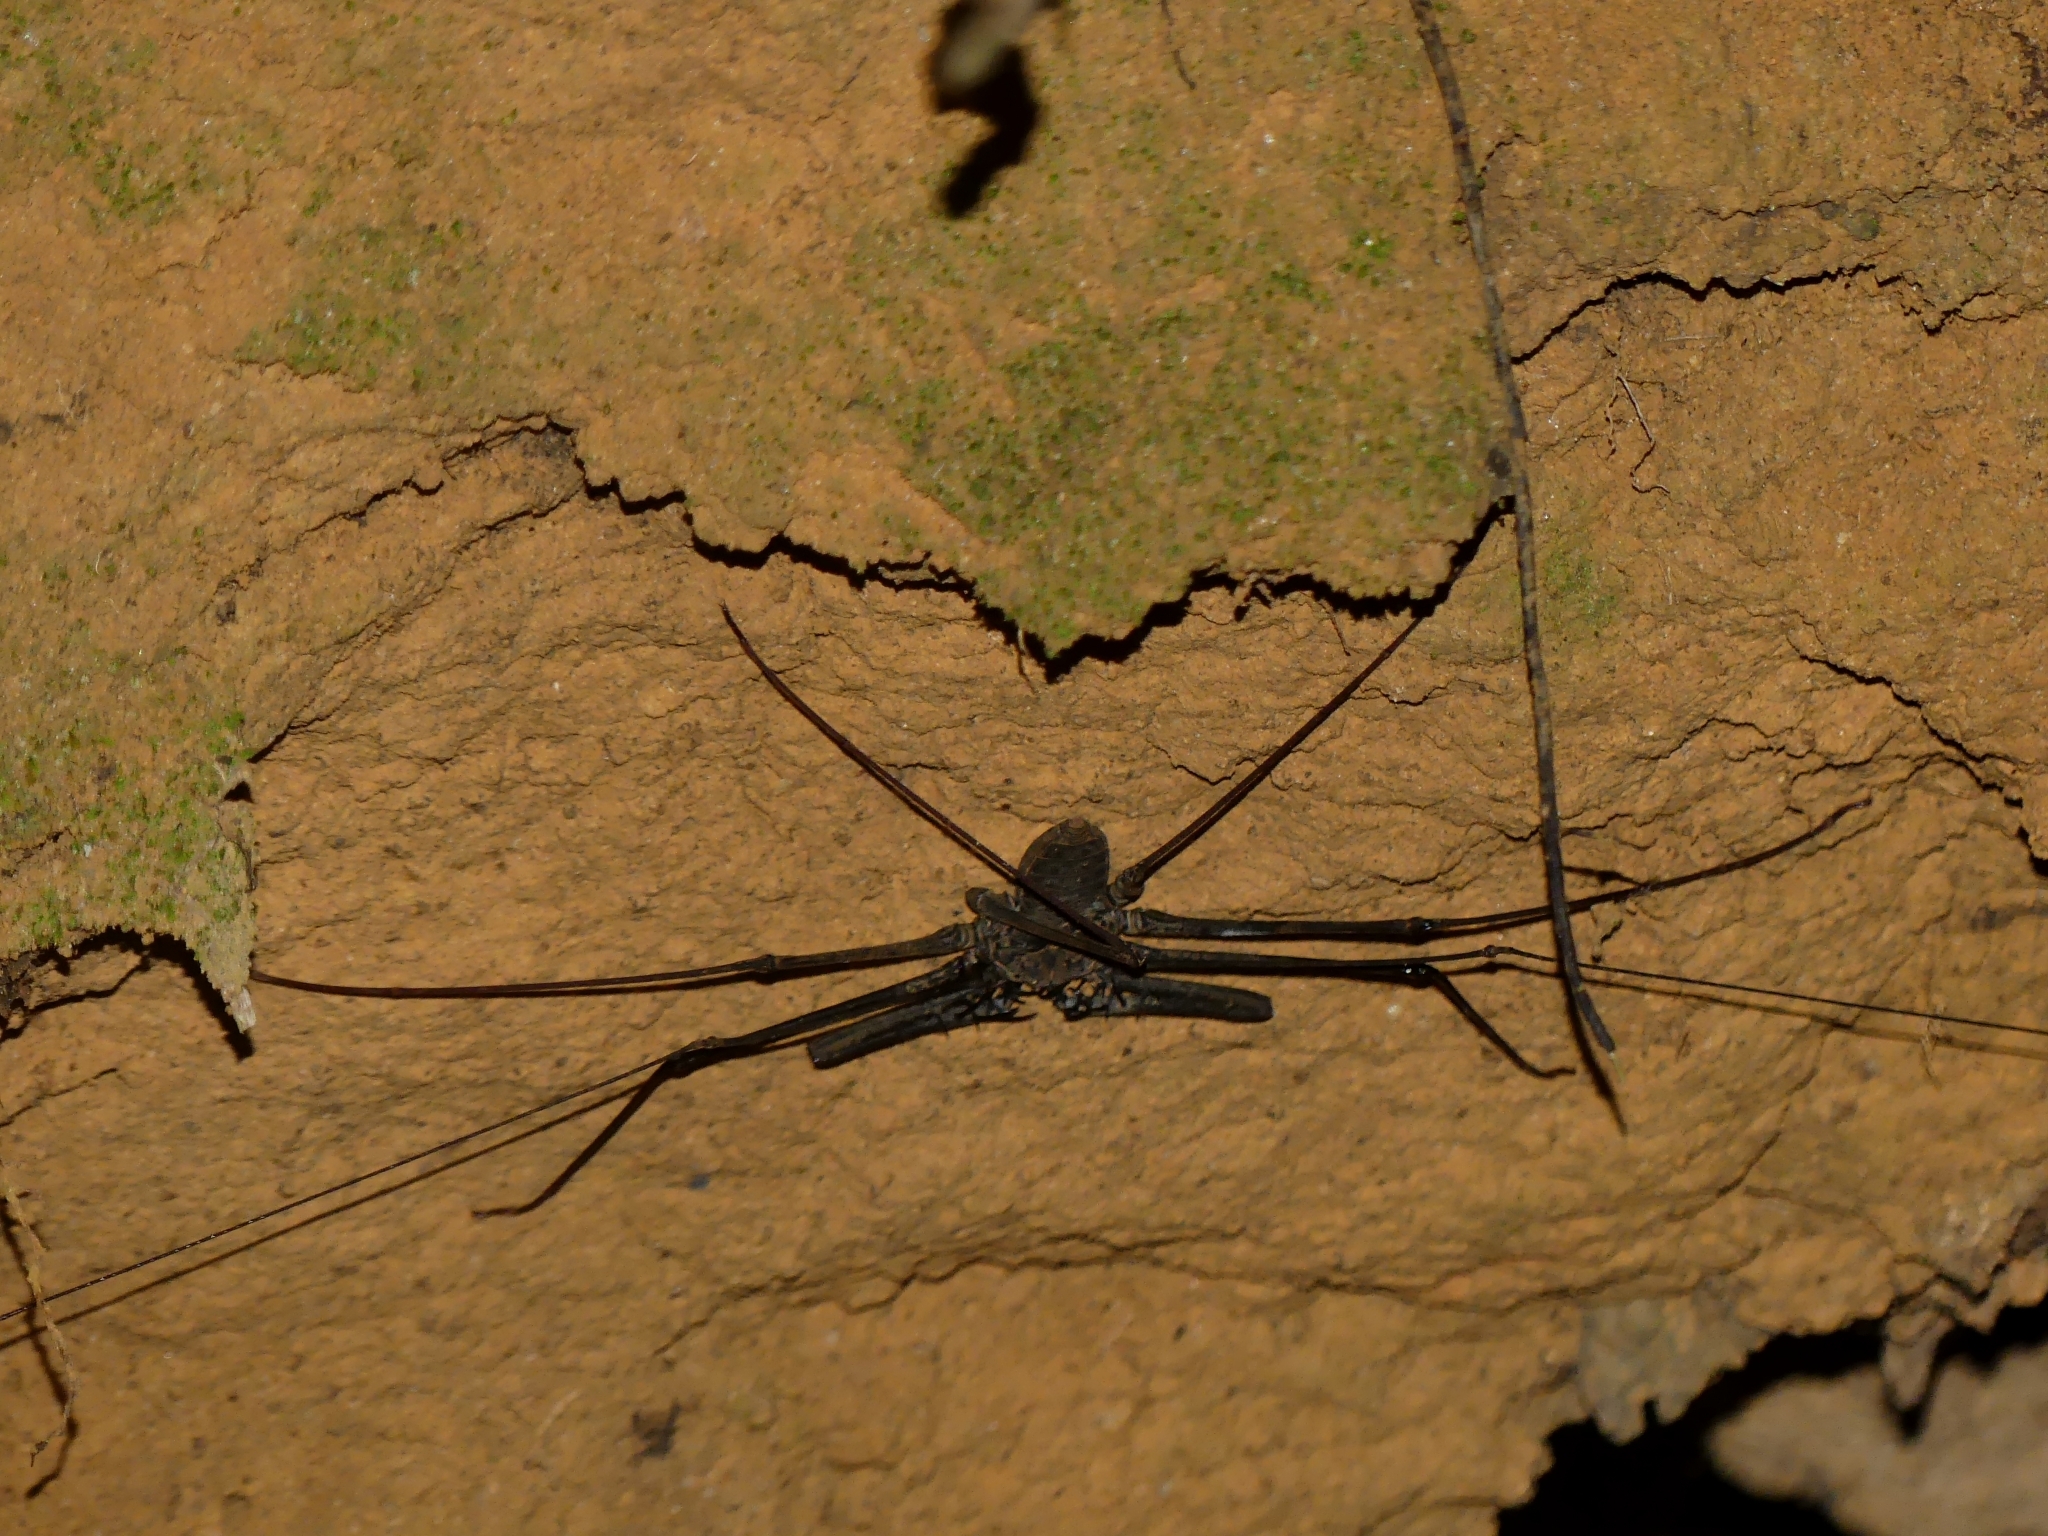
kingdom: Animalia
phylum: Arthropoda
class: Arachnida
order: Amblypygi
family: Phrynidae
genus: Heterophrynus
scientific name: Heterophrynus longicornis
